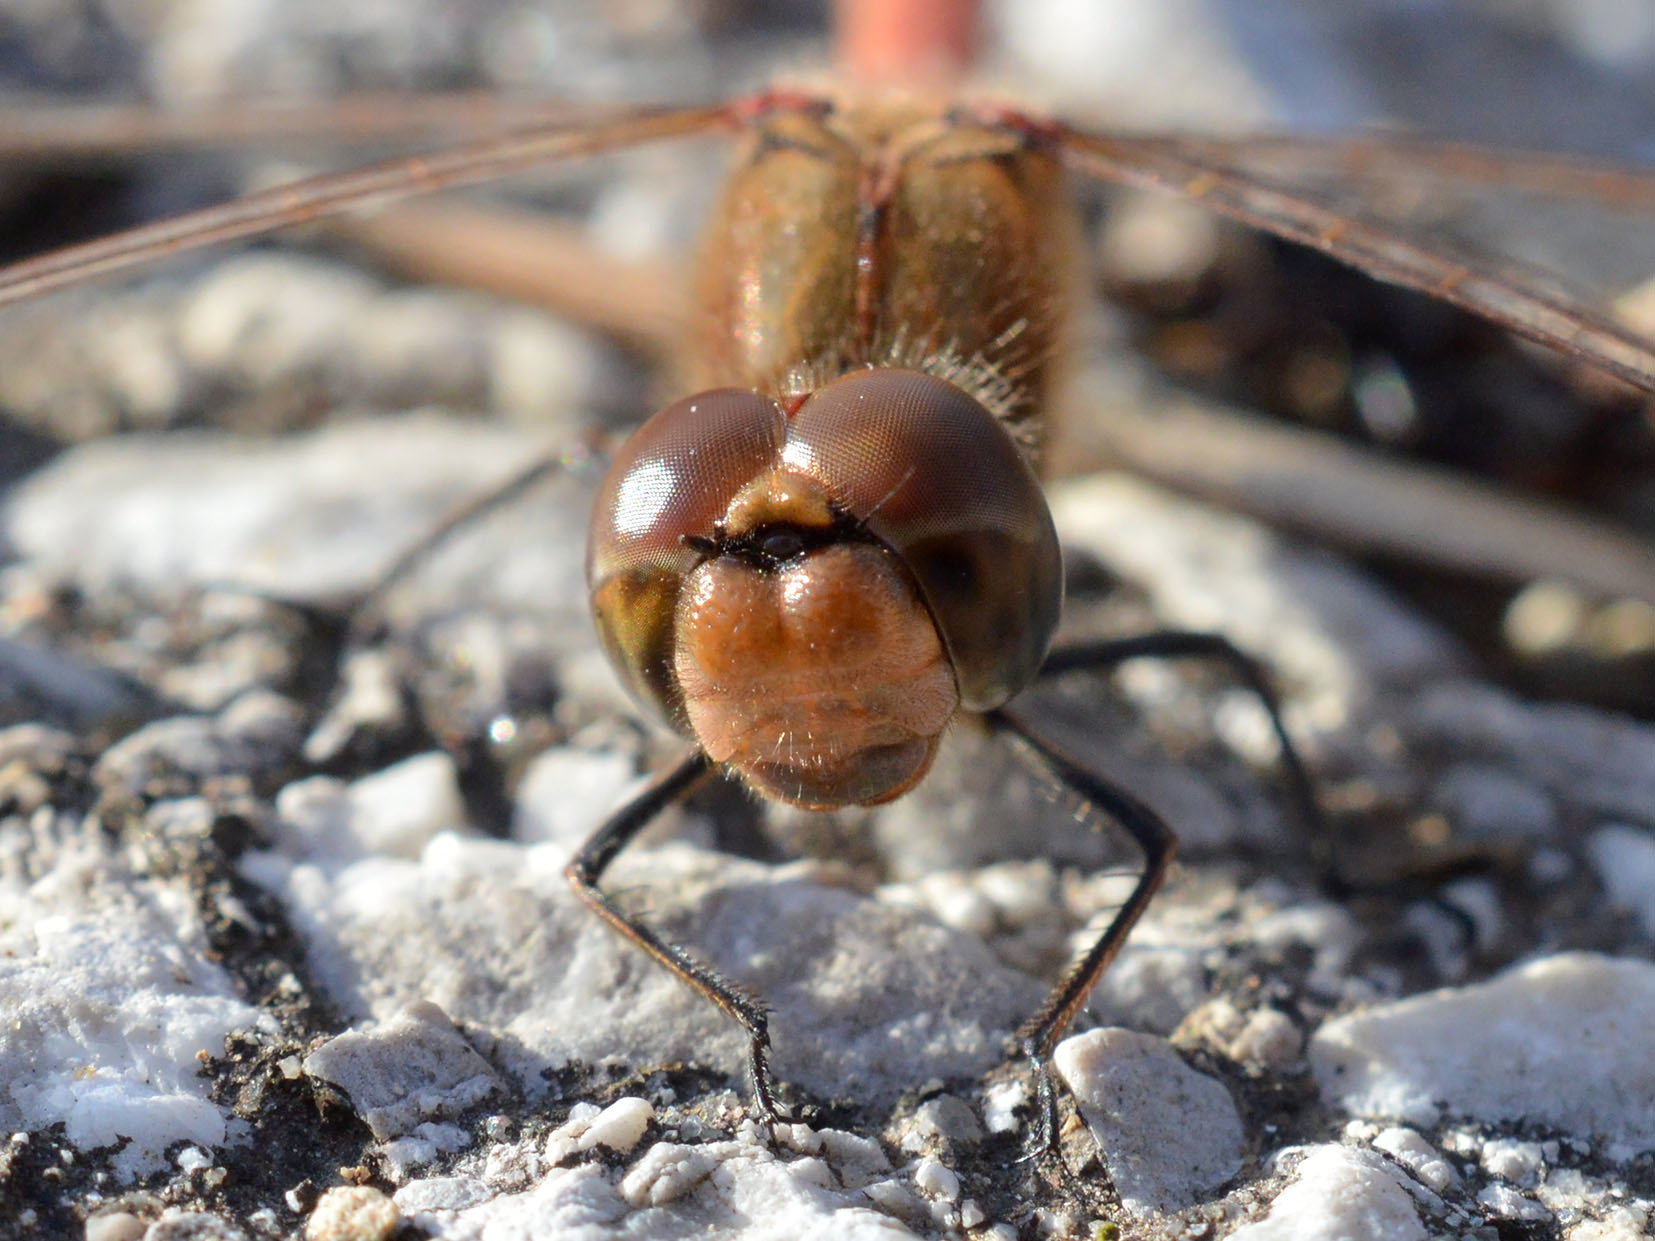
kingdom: Animalia
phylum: Arthropoda
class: Insecta
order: Odonata
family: Libellulidae
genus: Sympetrum
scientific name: Sympetrum striolatum
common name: Common darter
